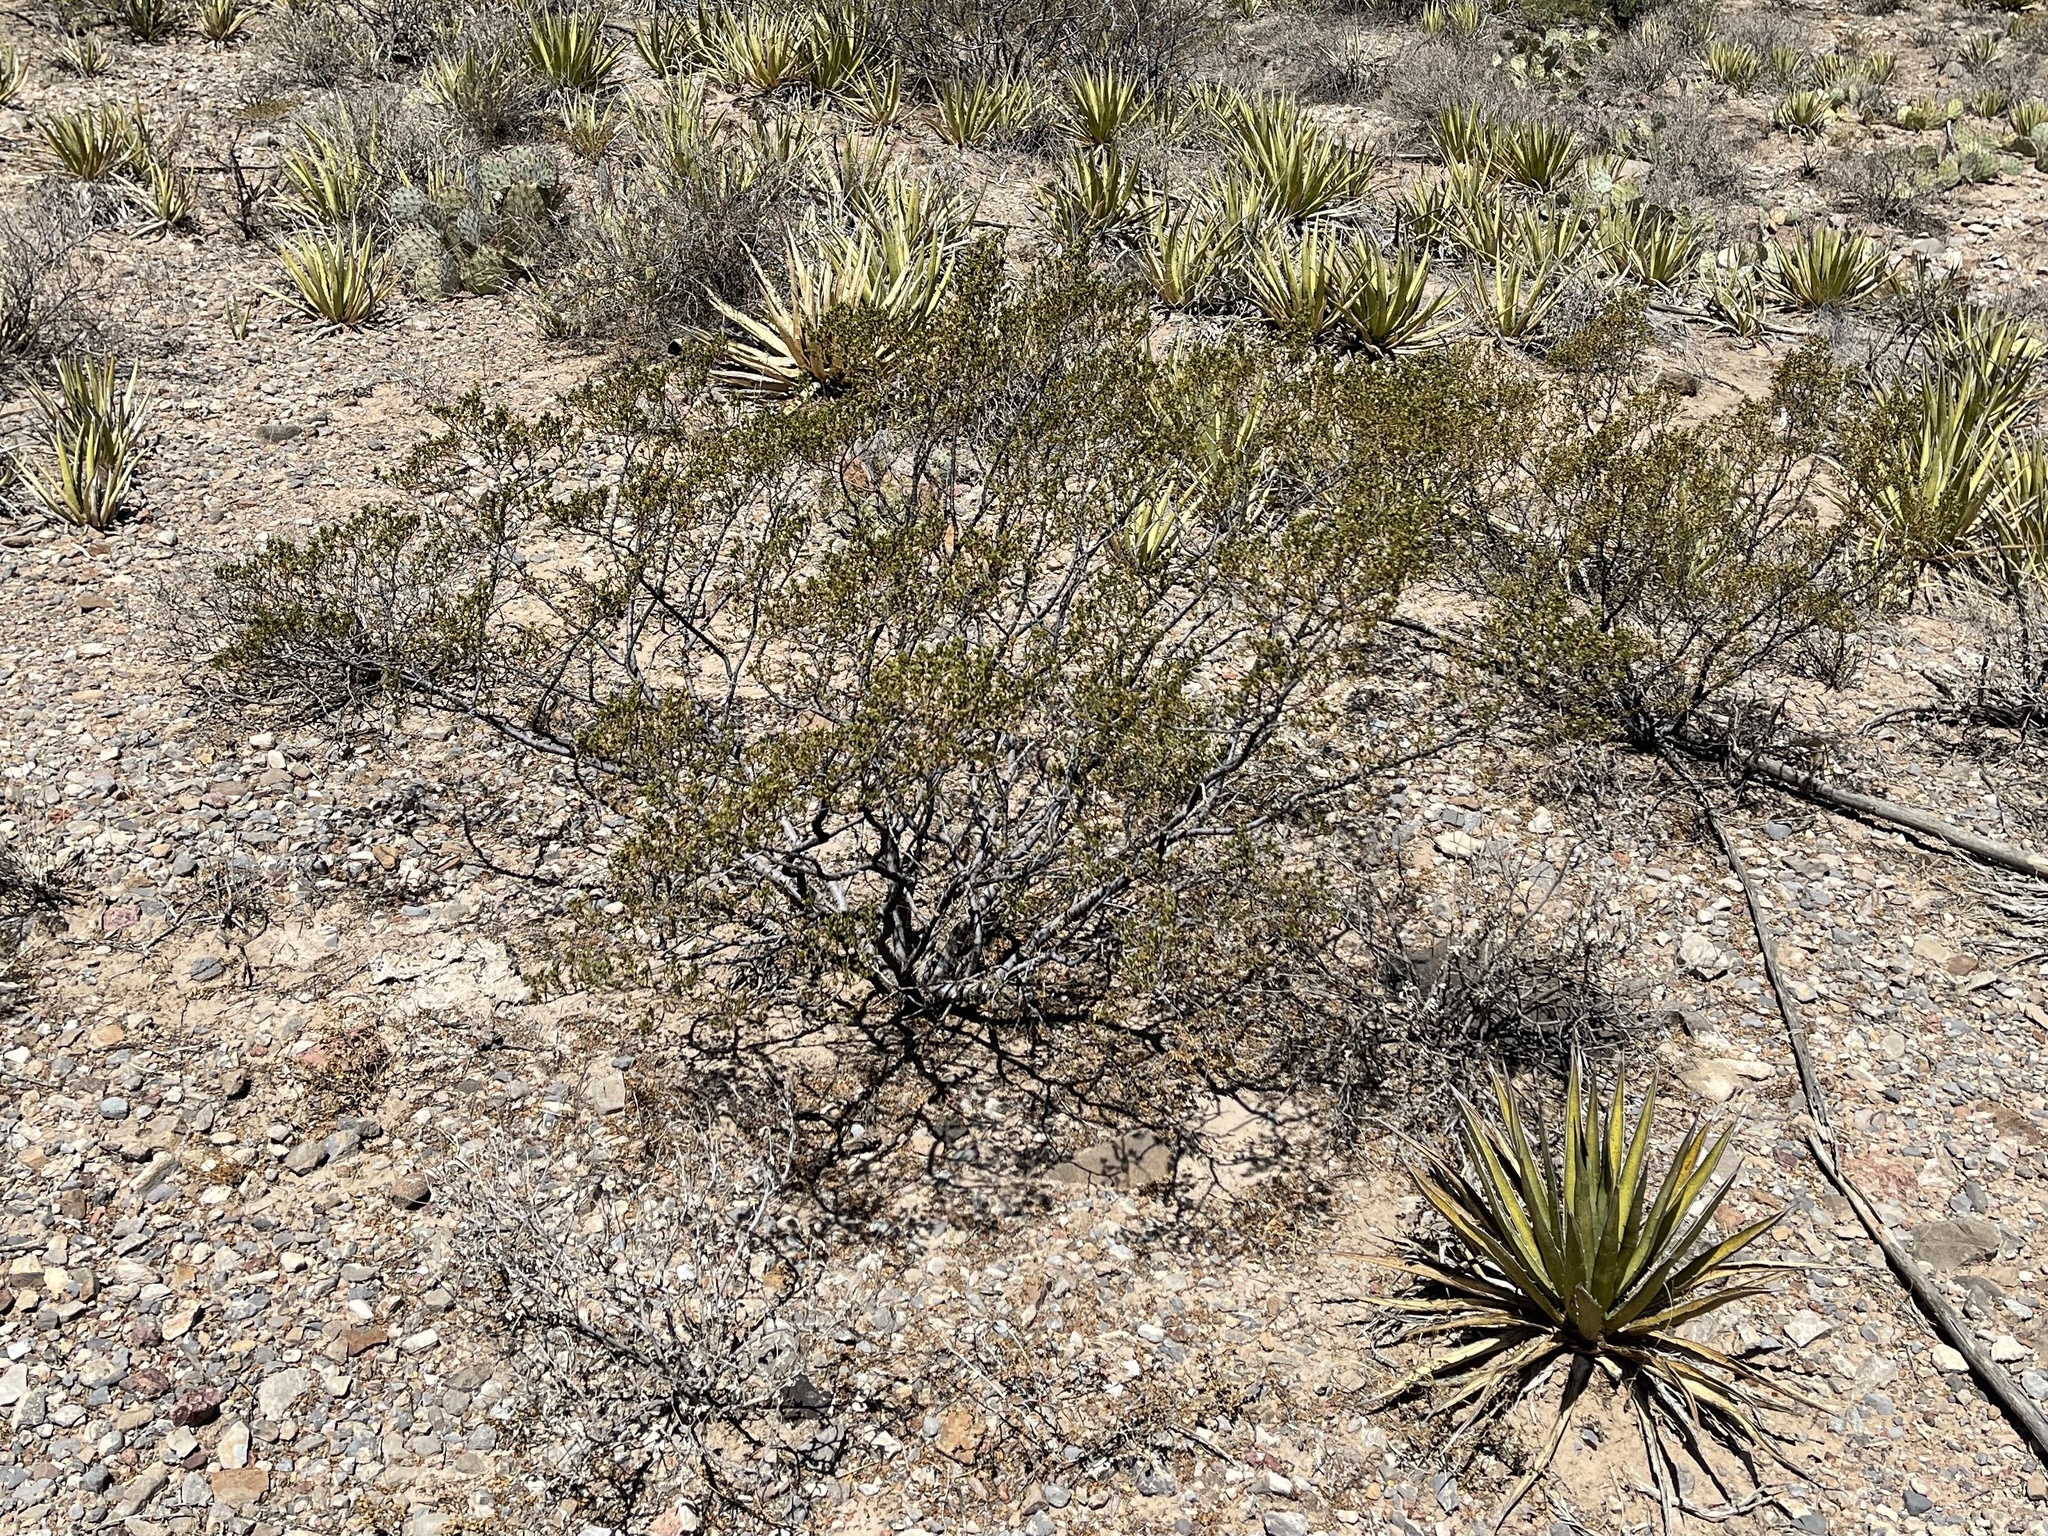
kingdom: Plantae
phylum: Tracheophyta
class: Magnoliopsida
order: Zygophyllales
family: Zygophyllaceae
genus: Larrea
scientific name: Larrea tridentata
